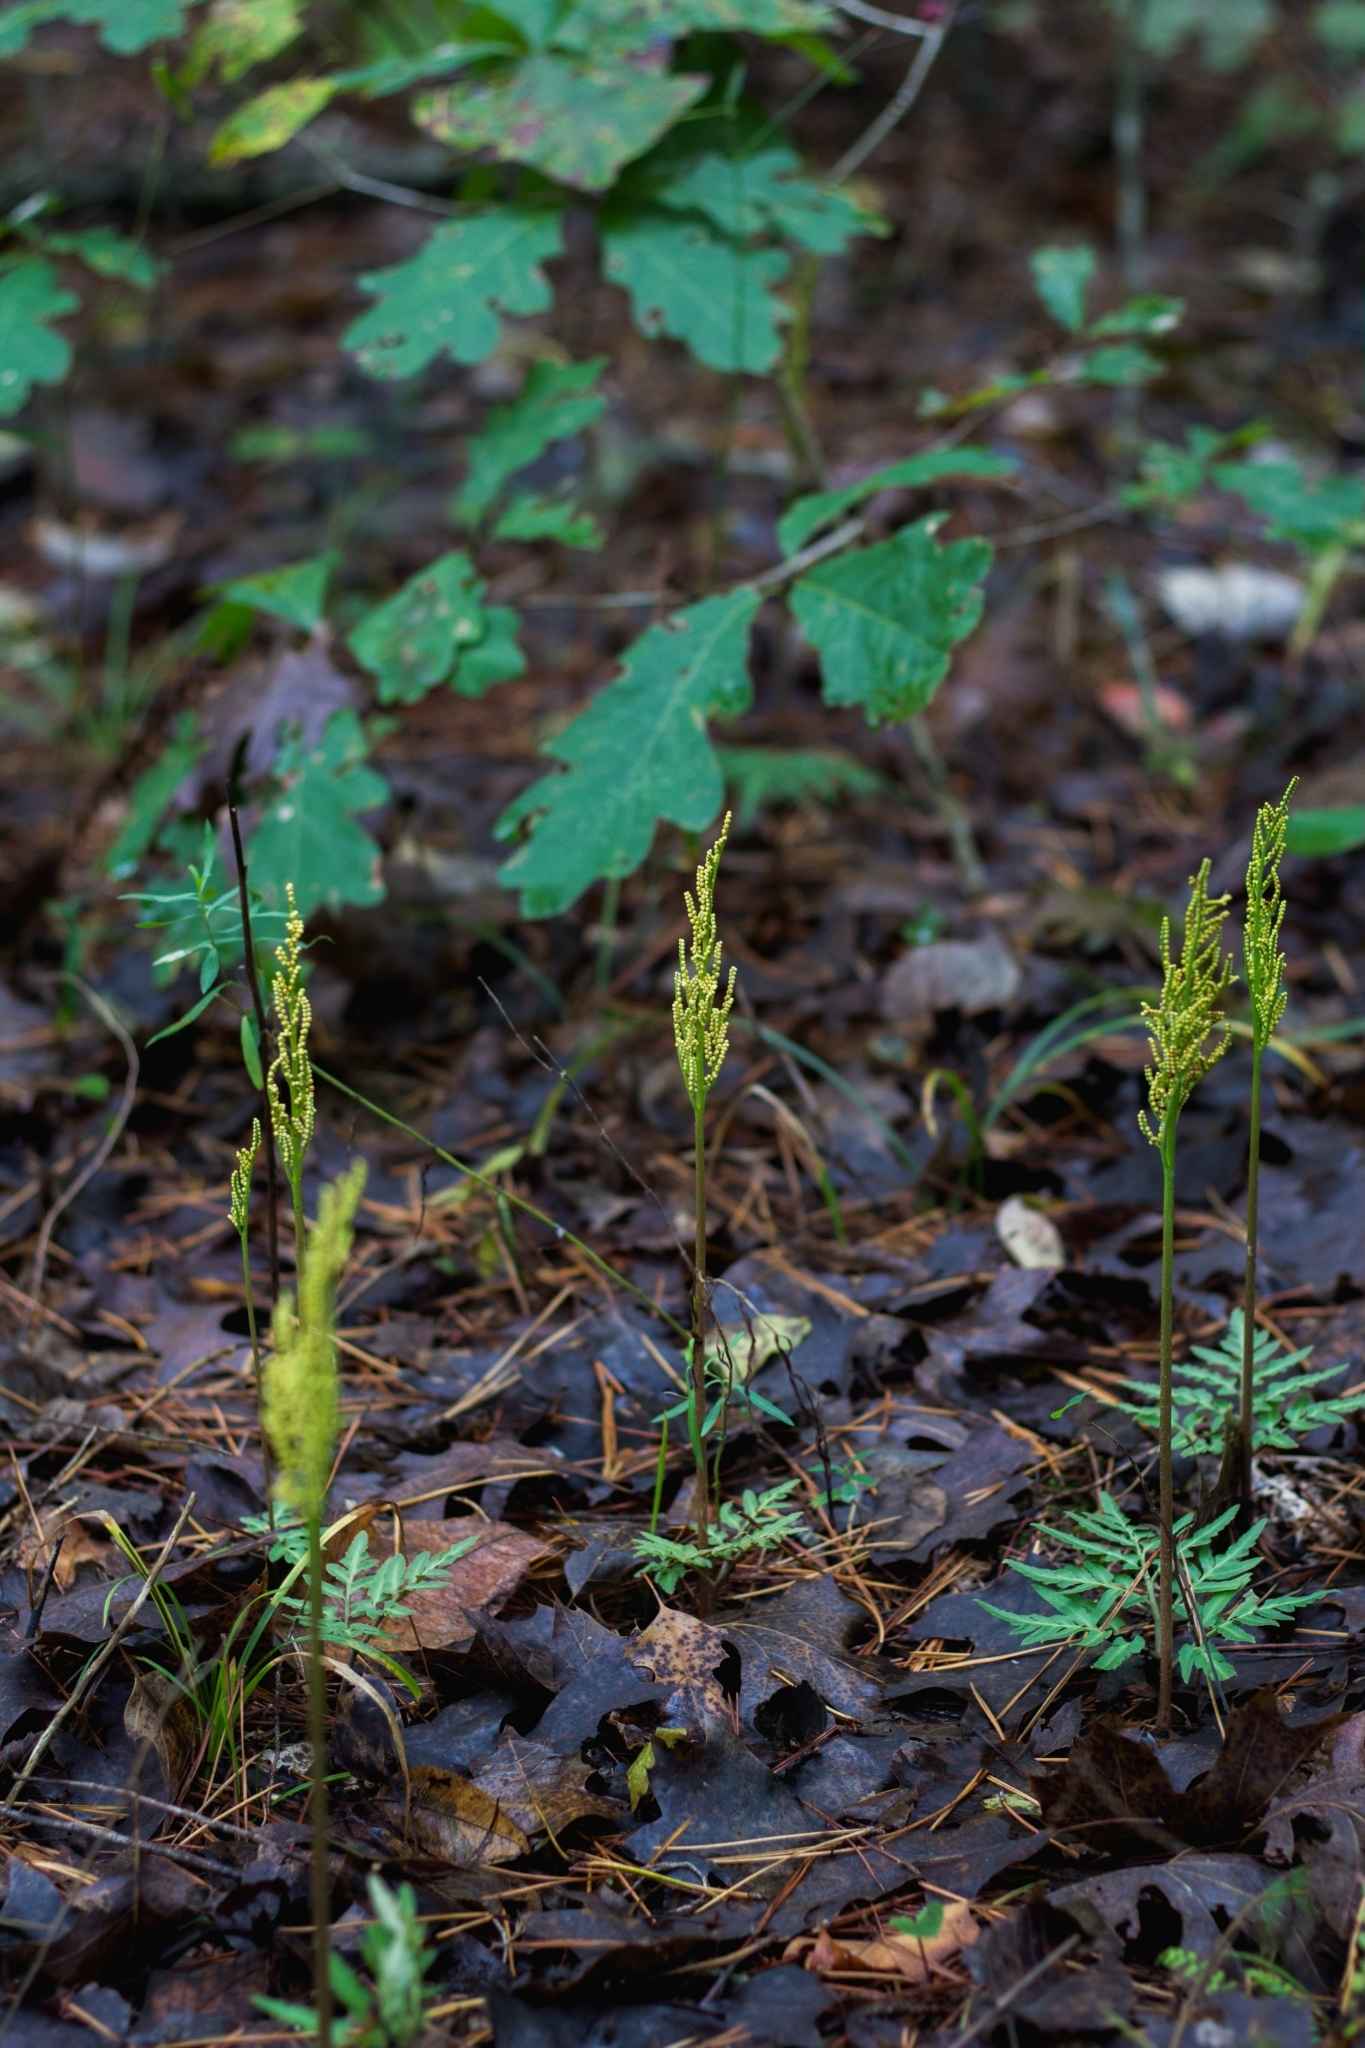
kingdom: Plantae
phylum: Tracheophyta
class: Polypodiopsida
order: Ophioglossales
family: Ophioglossaceae
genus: Sceptridium
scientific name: Sceptridium dissectum
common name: Cut-leaved grapefern
